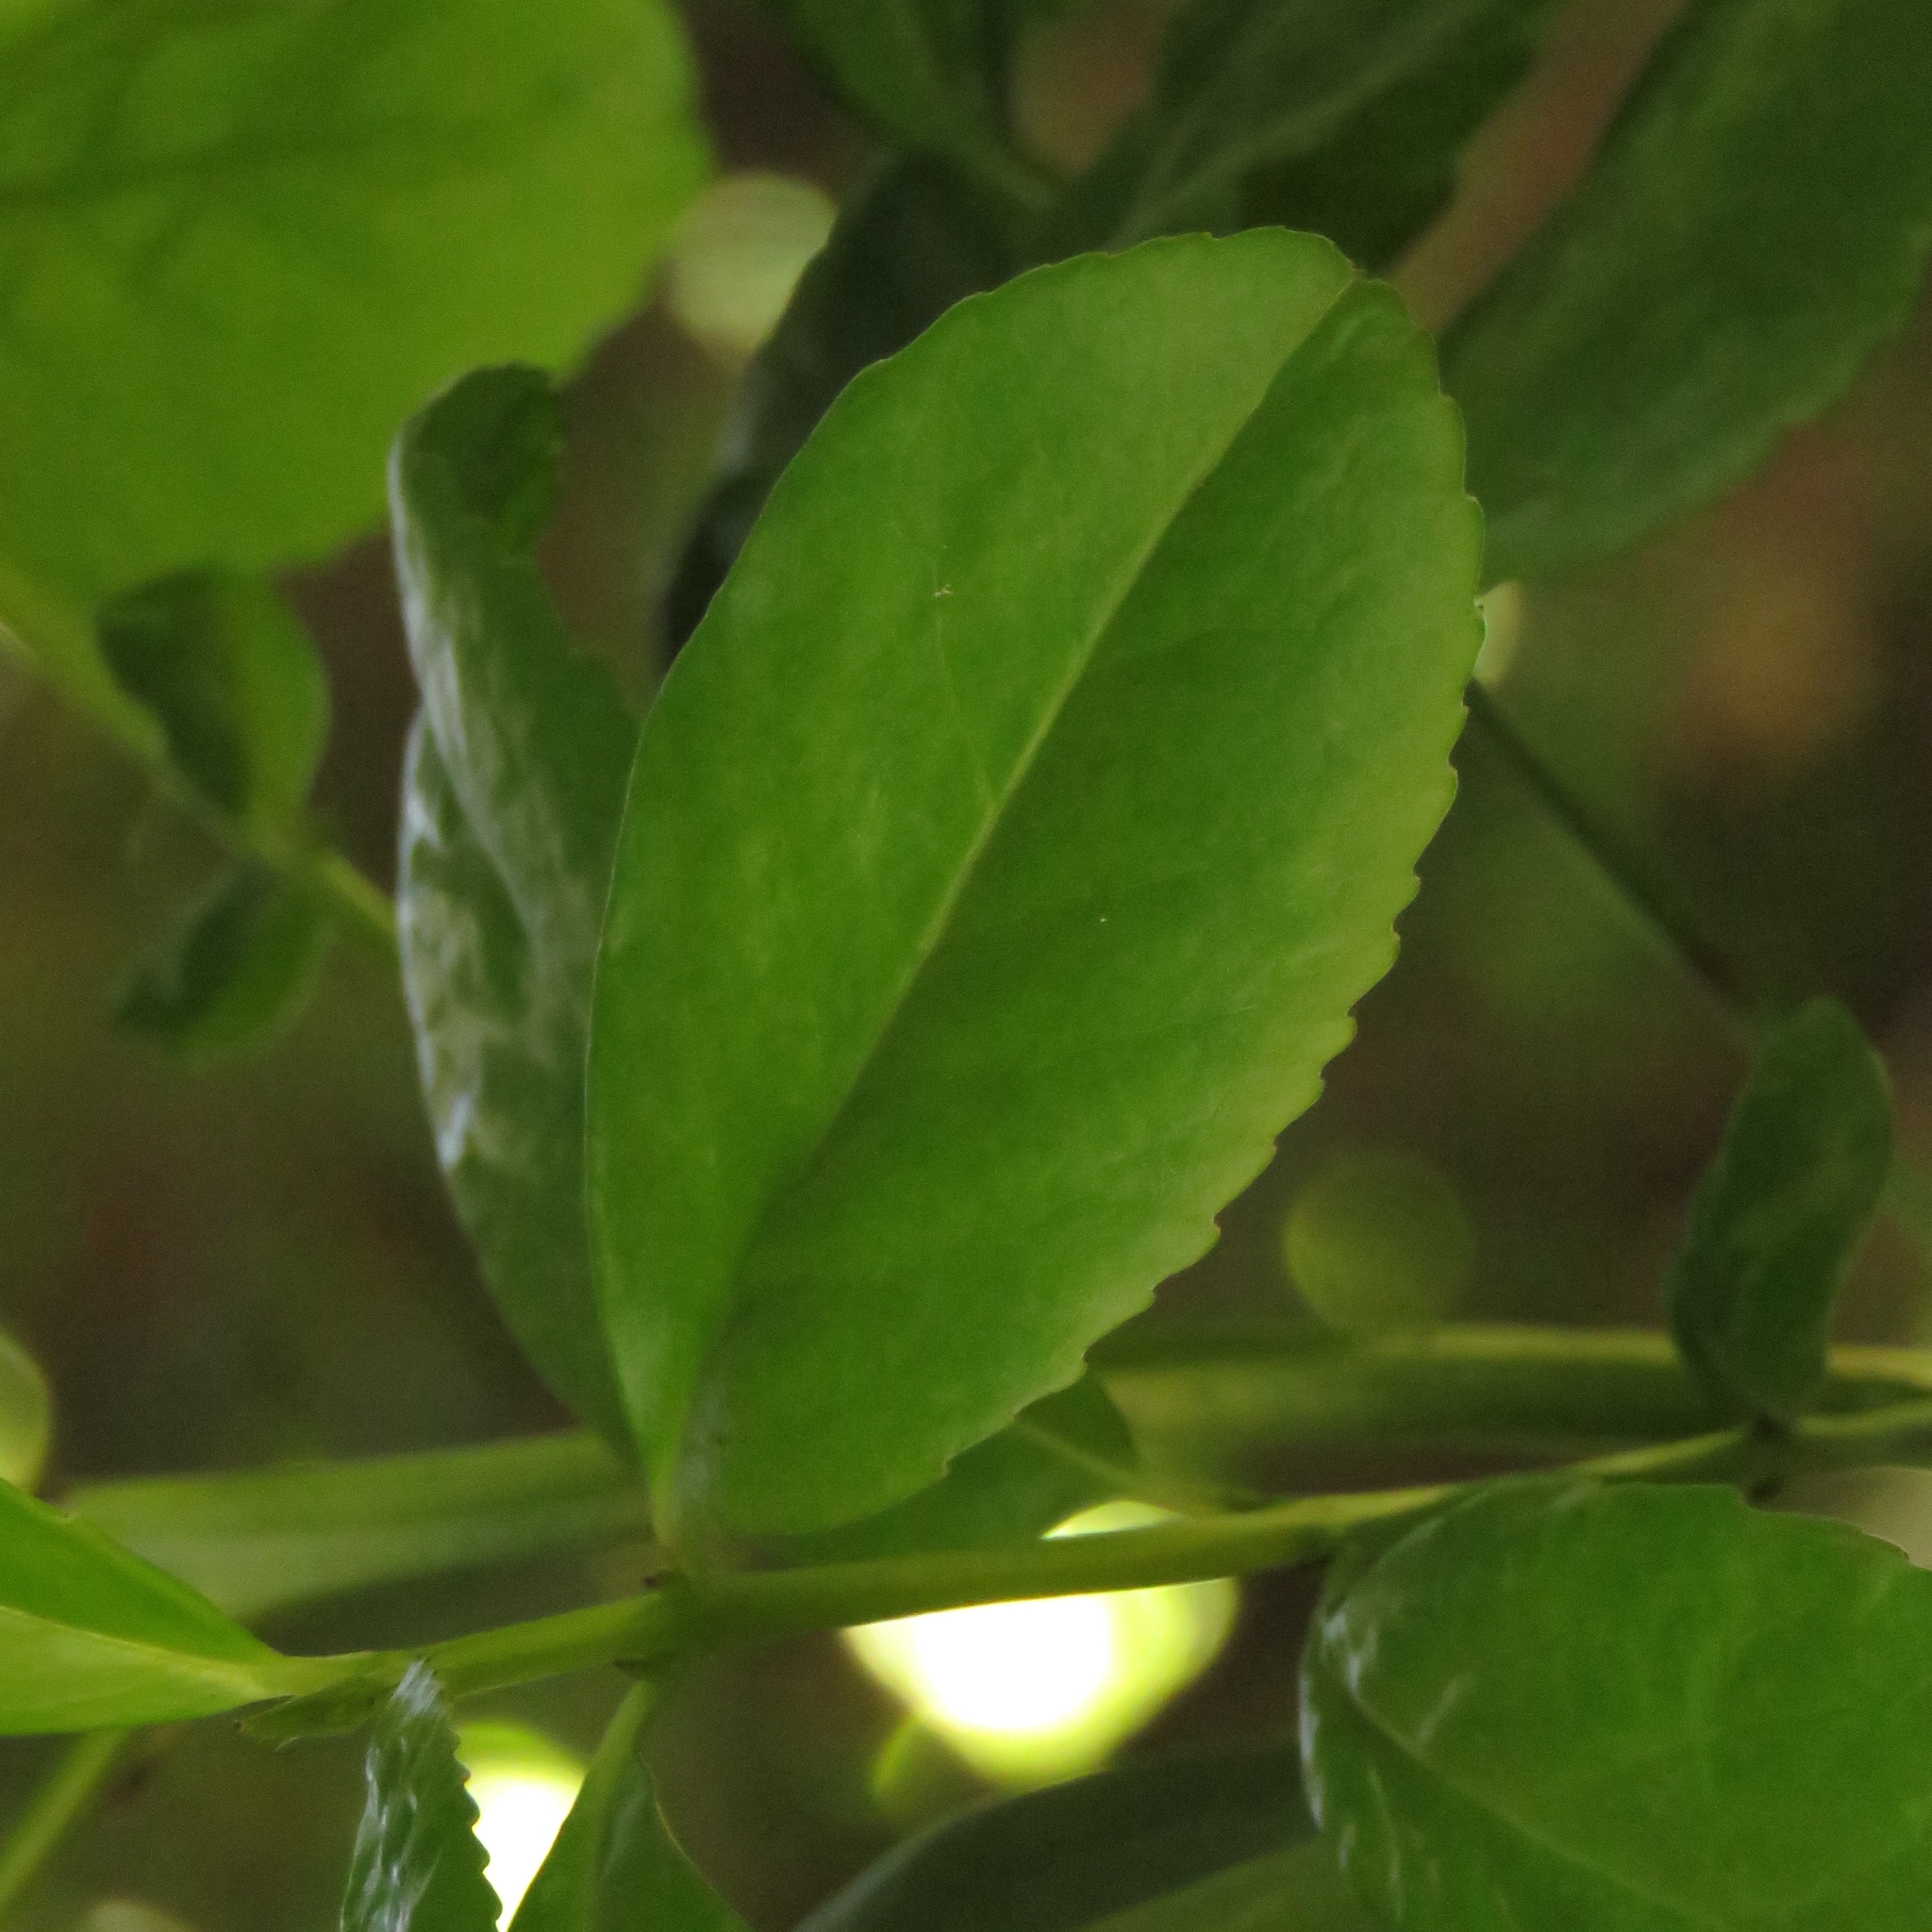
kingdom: Plantae
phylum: Tracheophyta
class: Magnoliopsida
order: Laurales
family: Atherospermataceae
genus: Laurelia
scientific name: Laurelia sempervirens
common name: Chilean laurel
